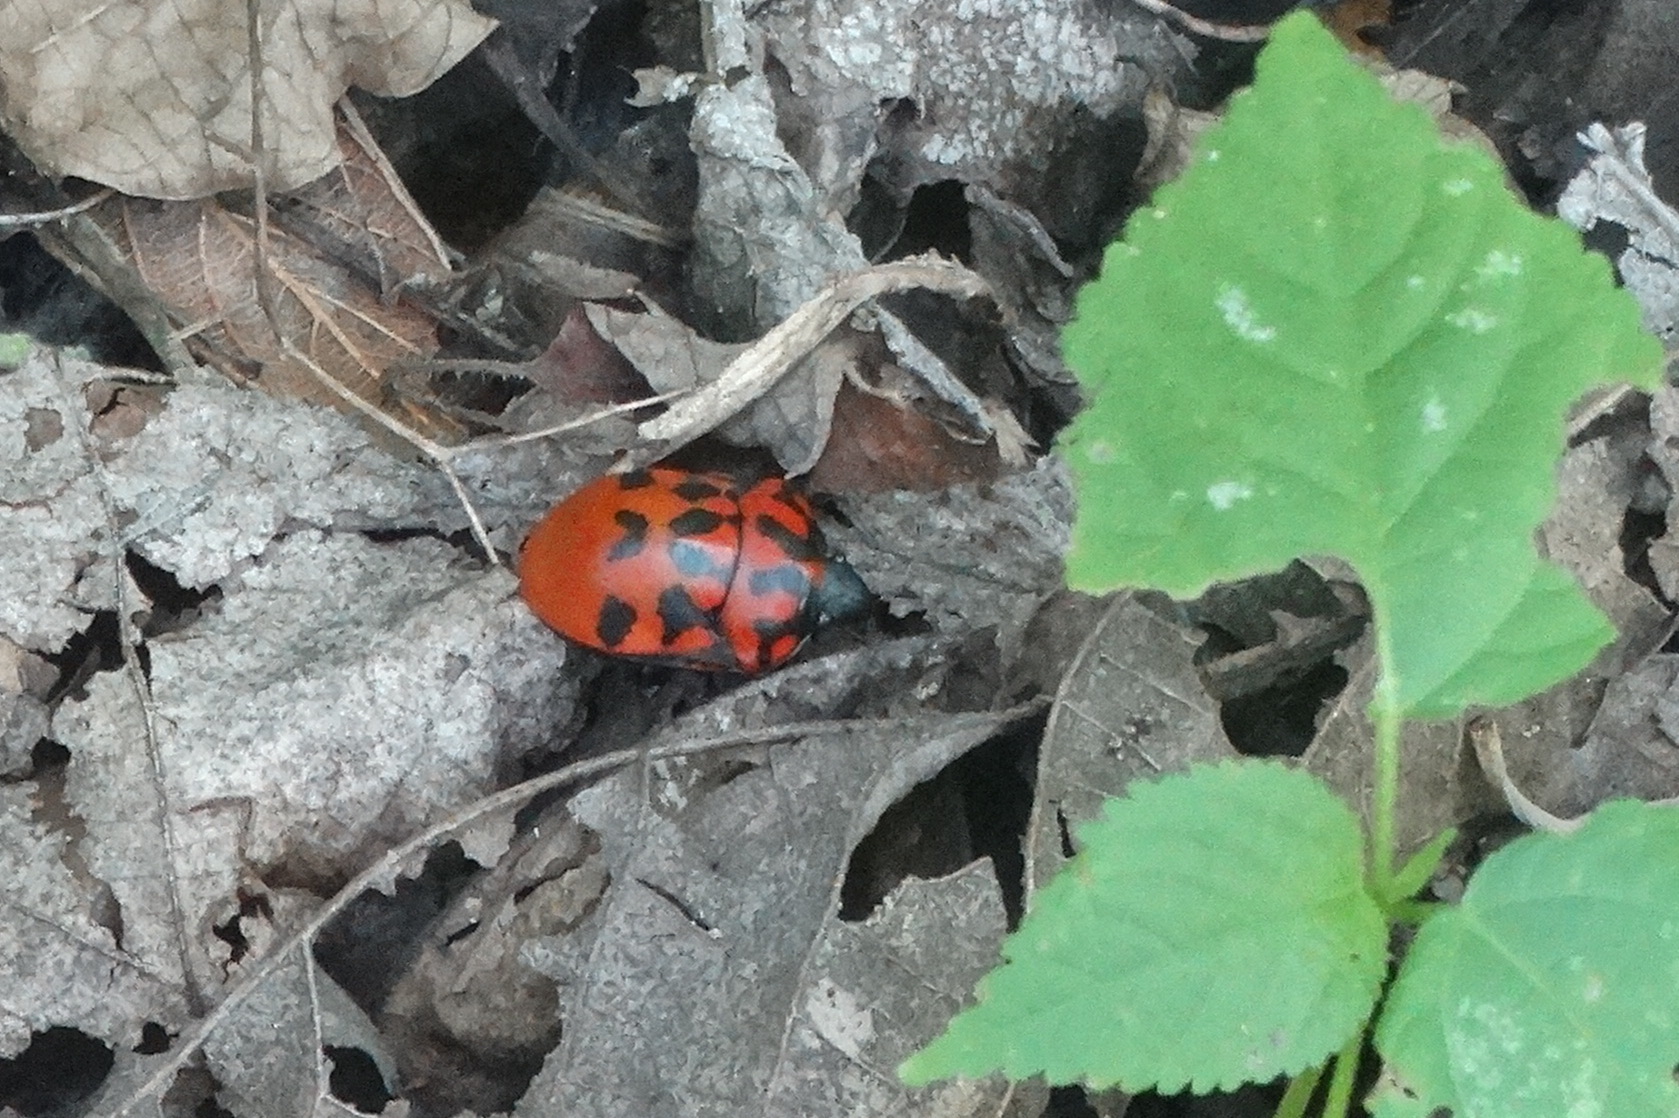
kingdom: Animalia
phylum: Arthropoda
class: Insecta
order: Hemiptera
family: Scutelleridae
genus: Pachycoris
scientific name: Pachycoris klugii
